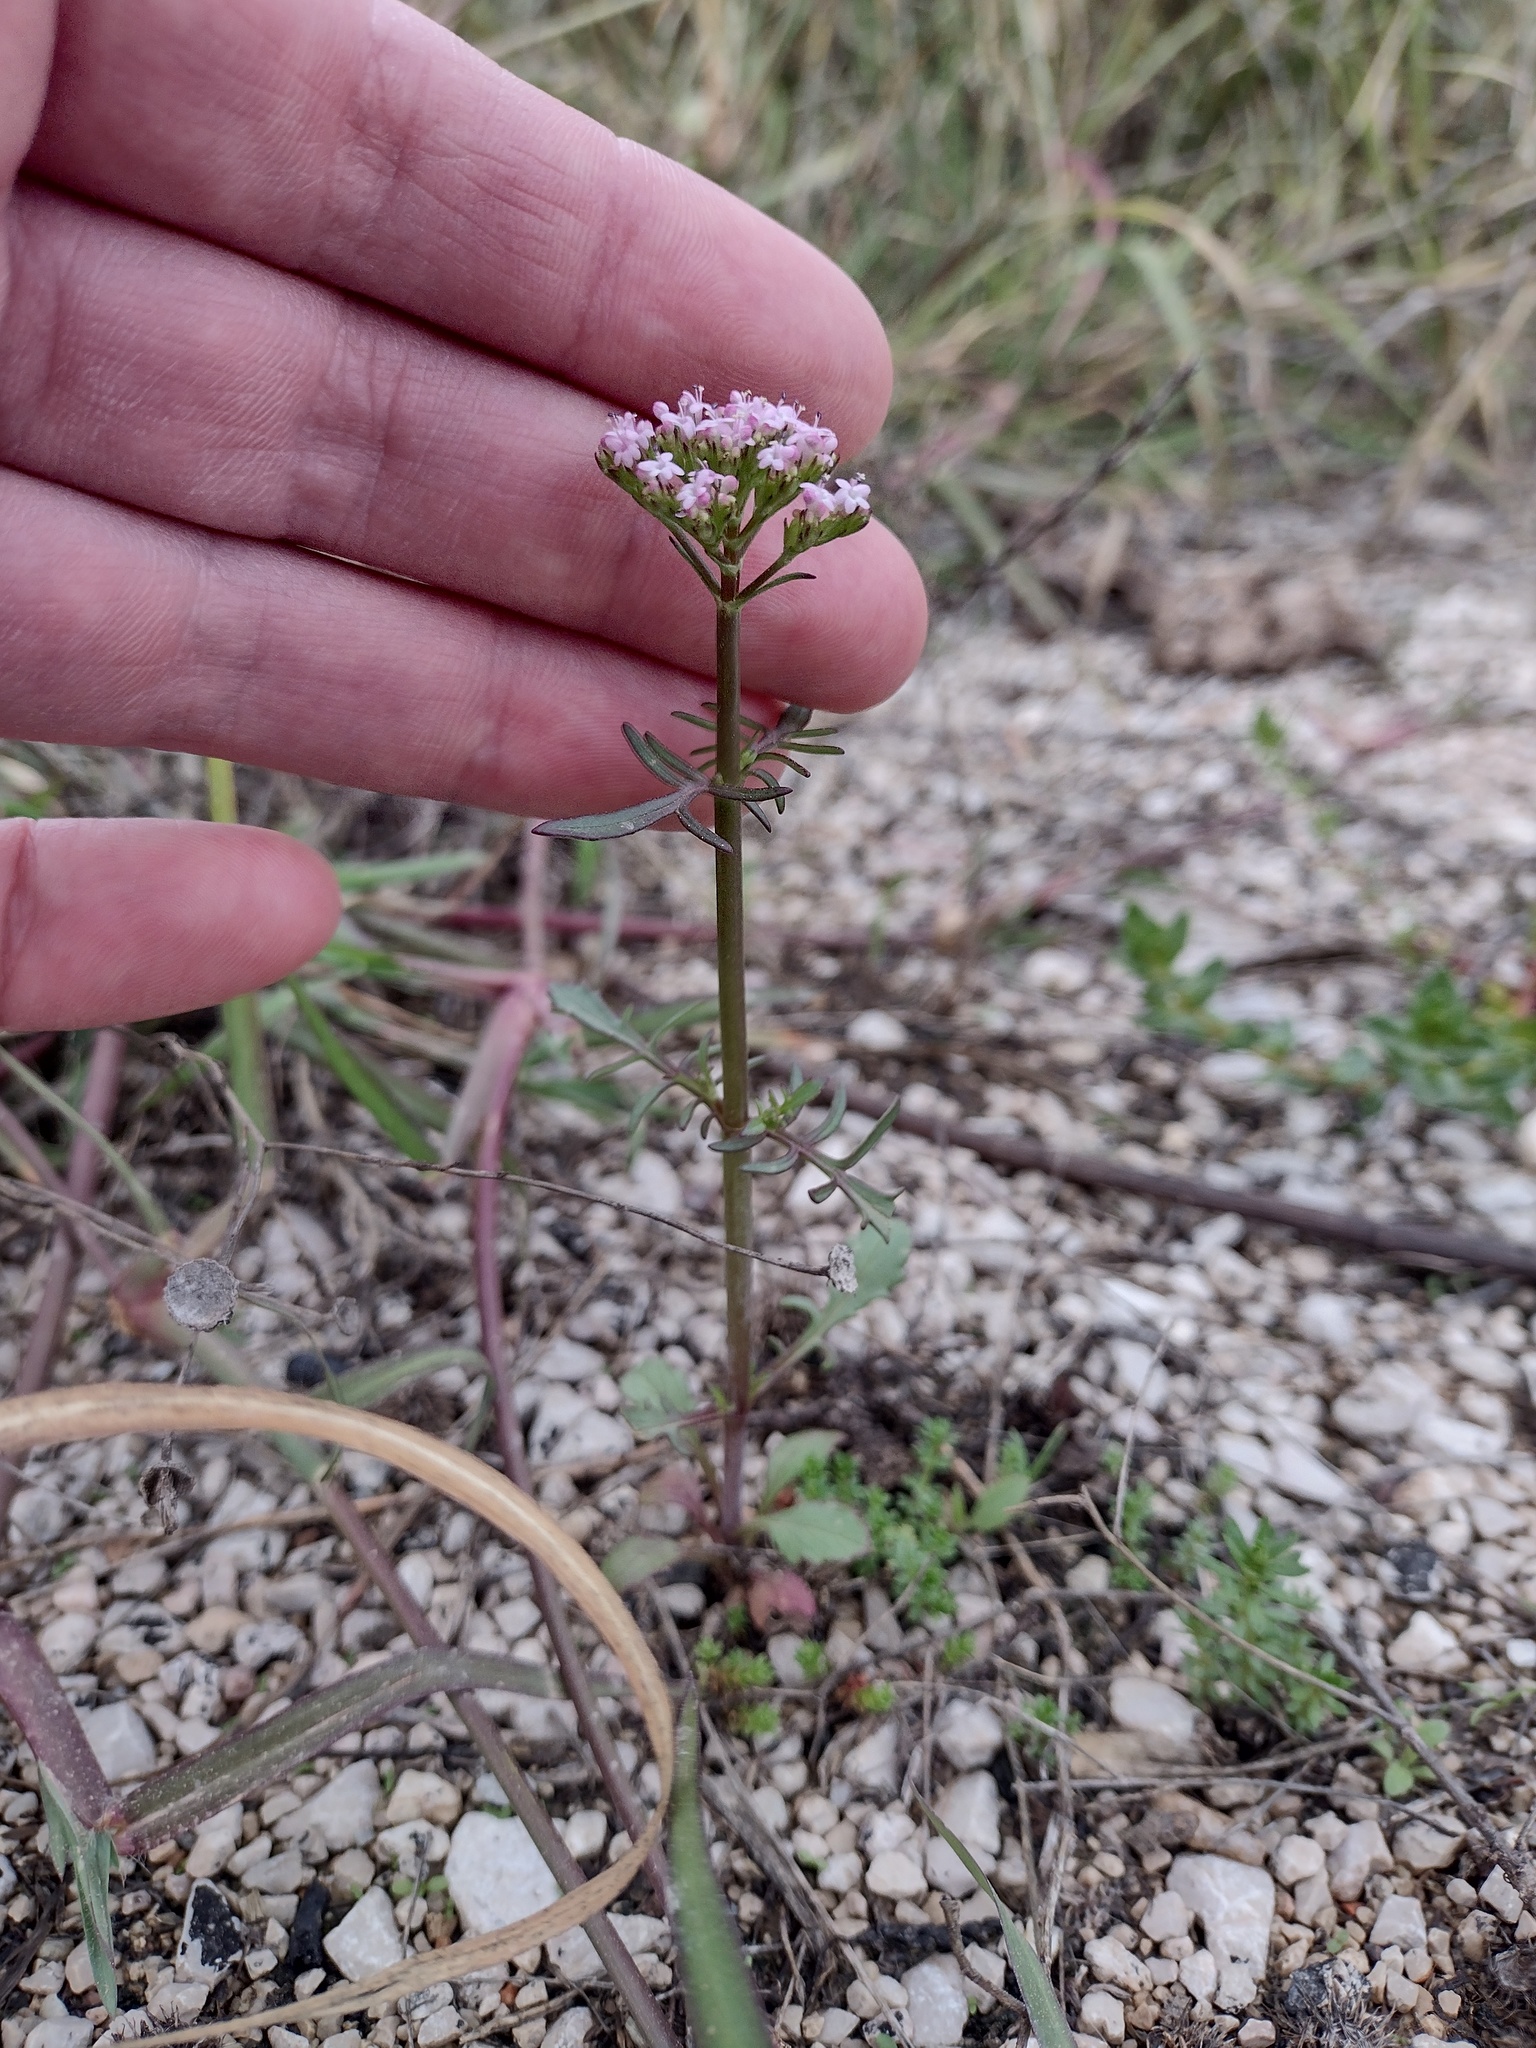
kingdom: Plantae
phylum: Tracheophyta
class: Magnoliopsida
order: Dipsacales
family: Caprifoliaceae
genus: Centranthus
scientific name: Centranthus calcitrapae
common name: Annual valerian
